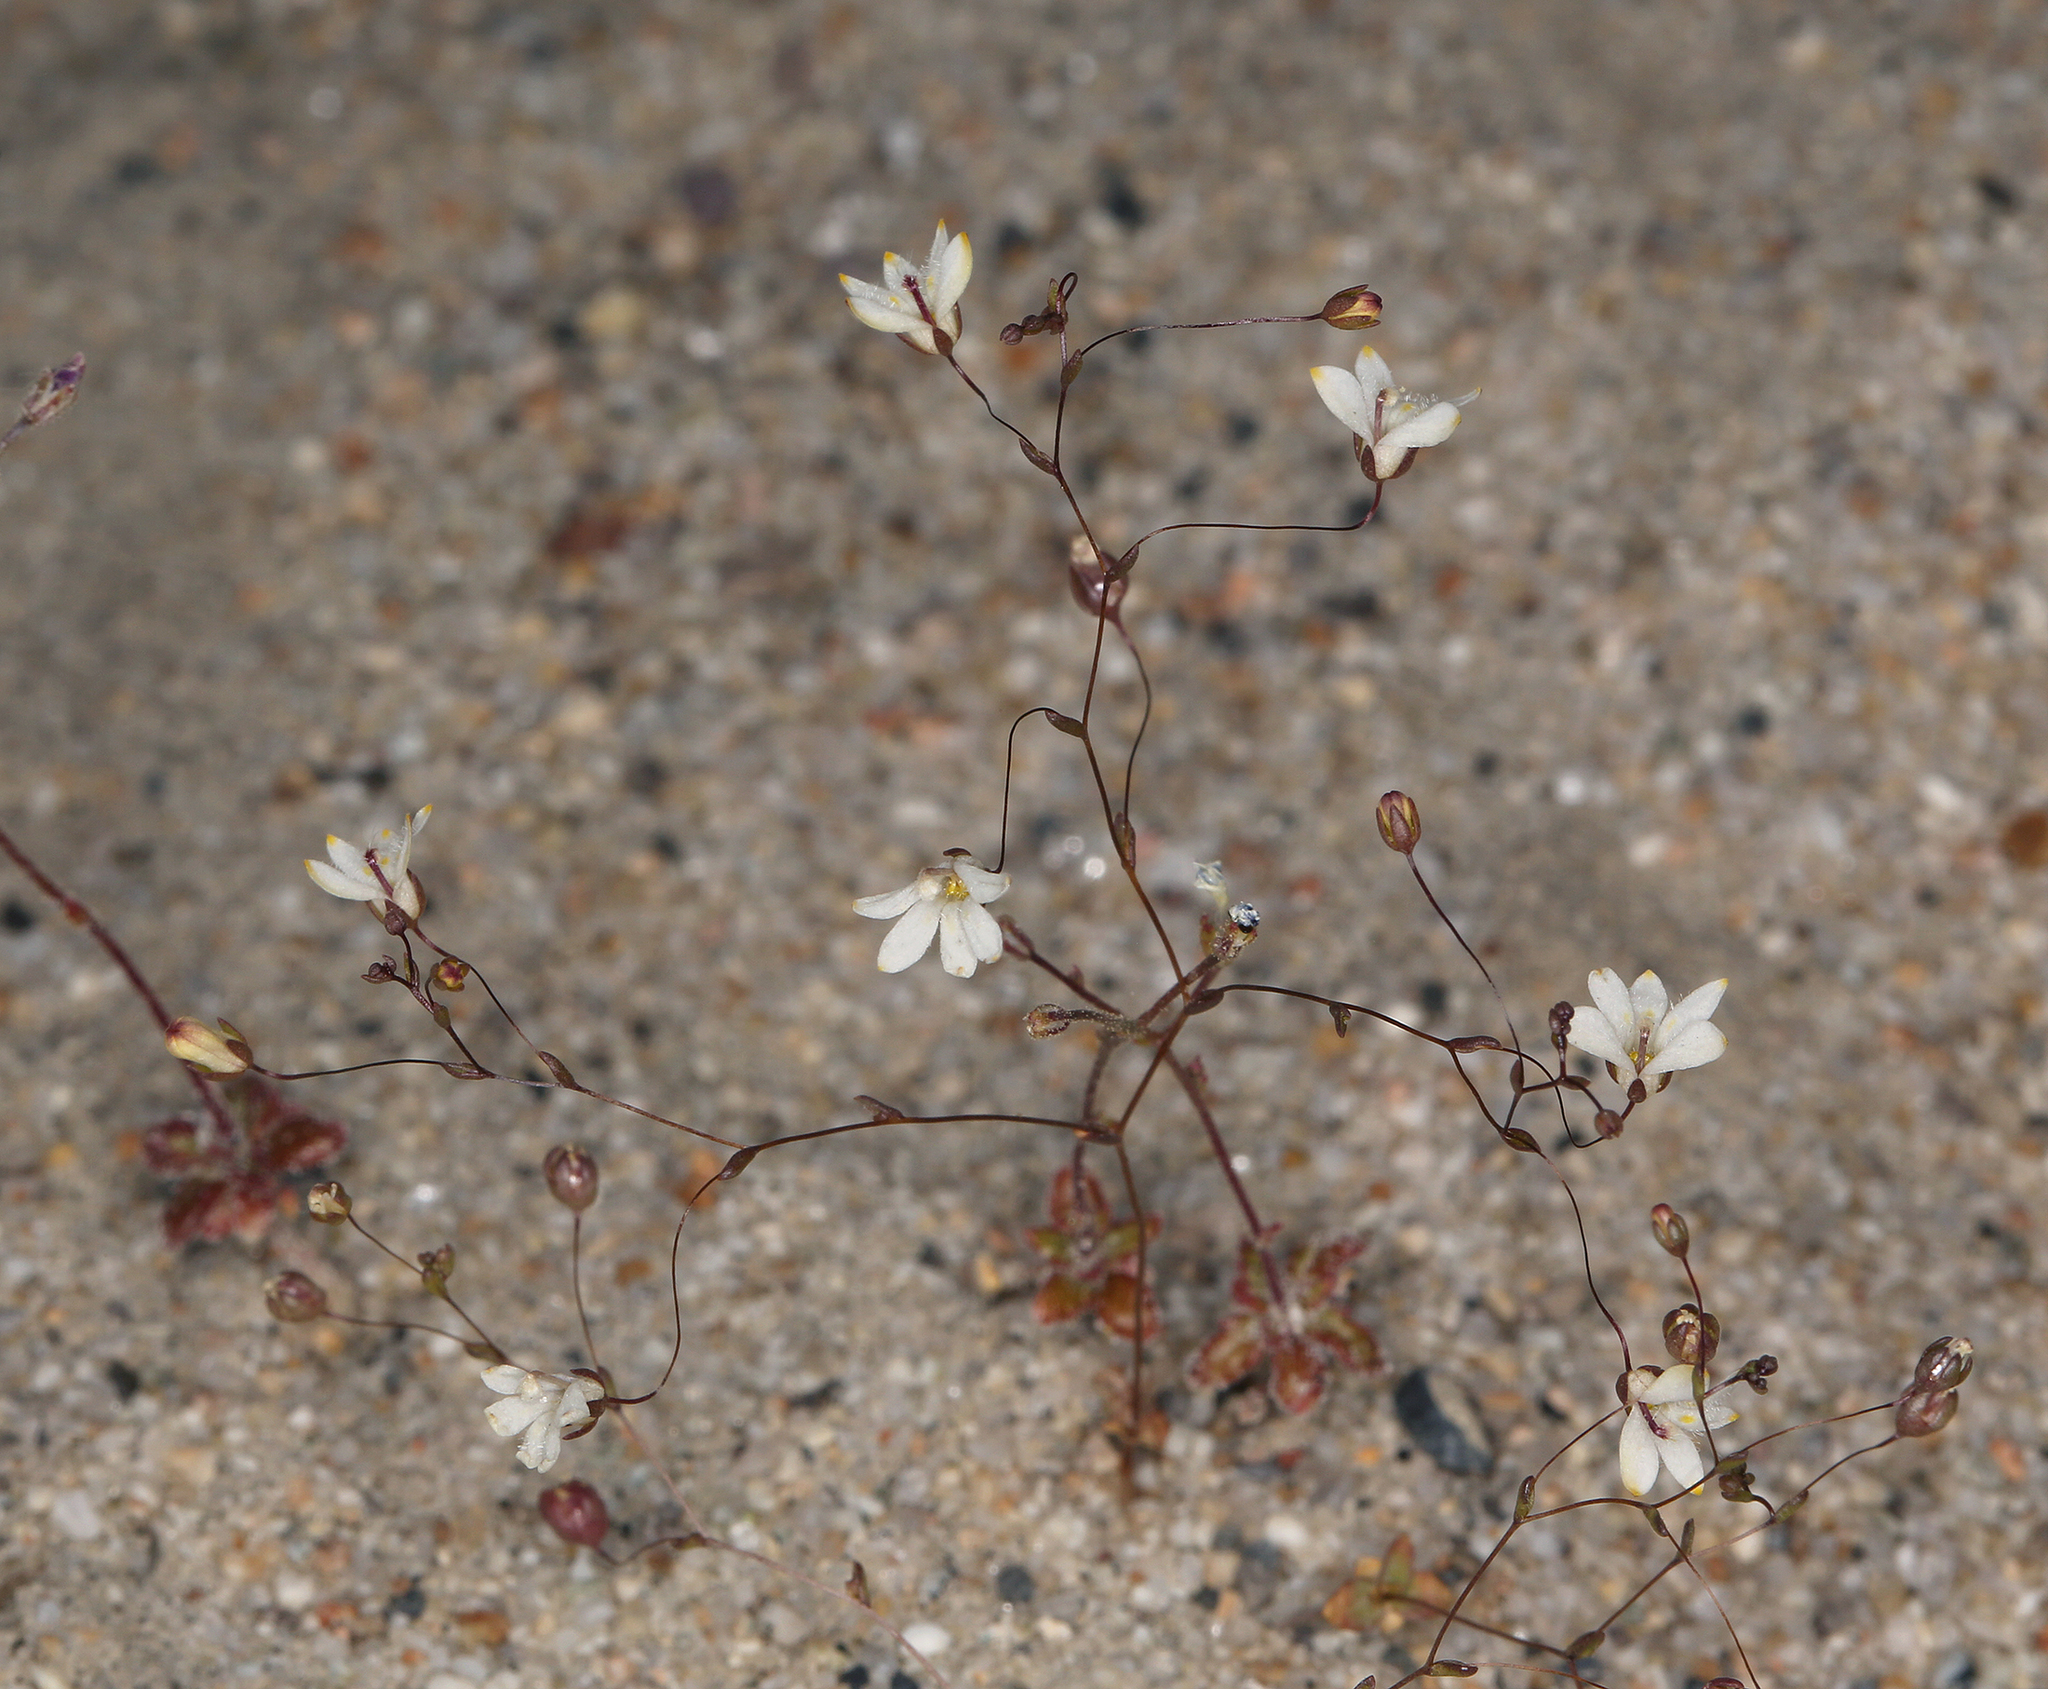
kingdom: Plantae
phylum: Tracheophyta
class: Magnoliopsida
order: Asterales
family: Campanulaceae
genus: Nemacladus
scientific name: Nemacladus matsonii
